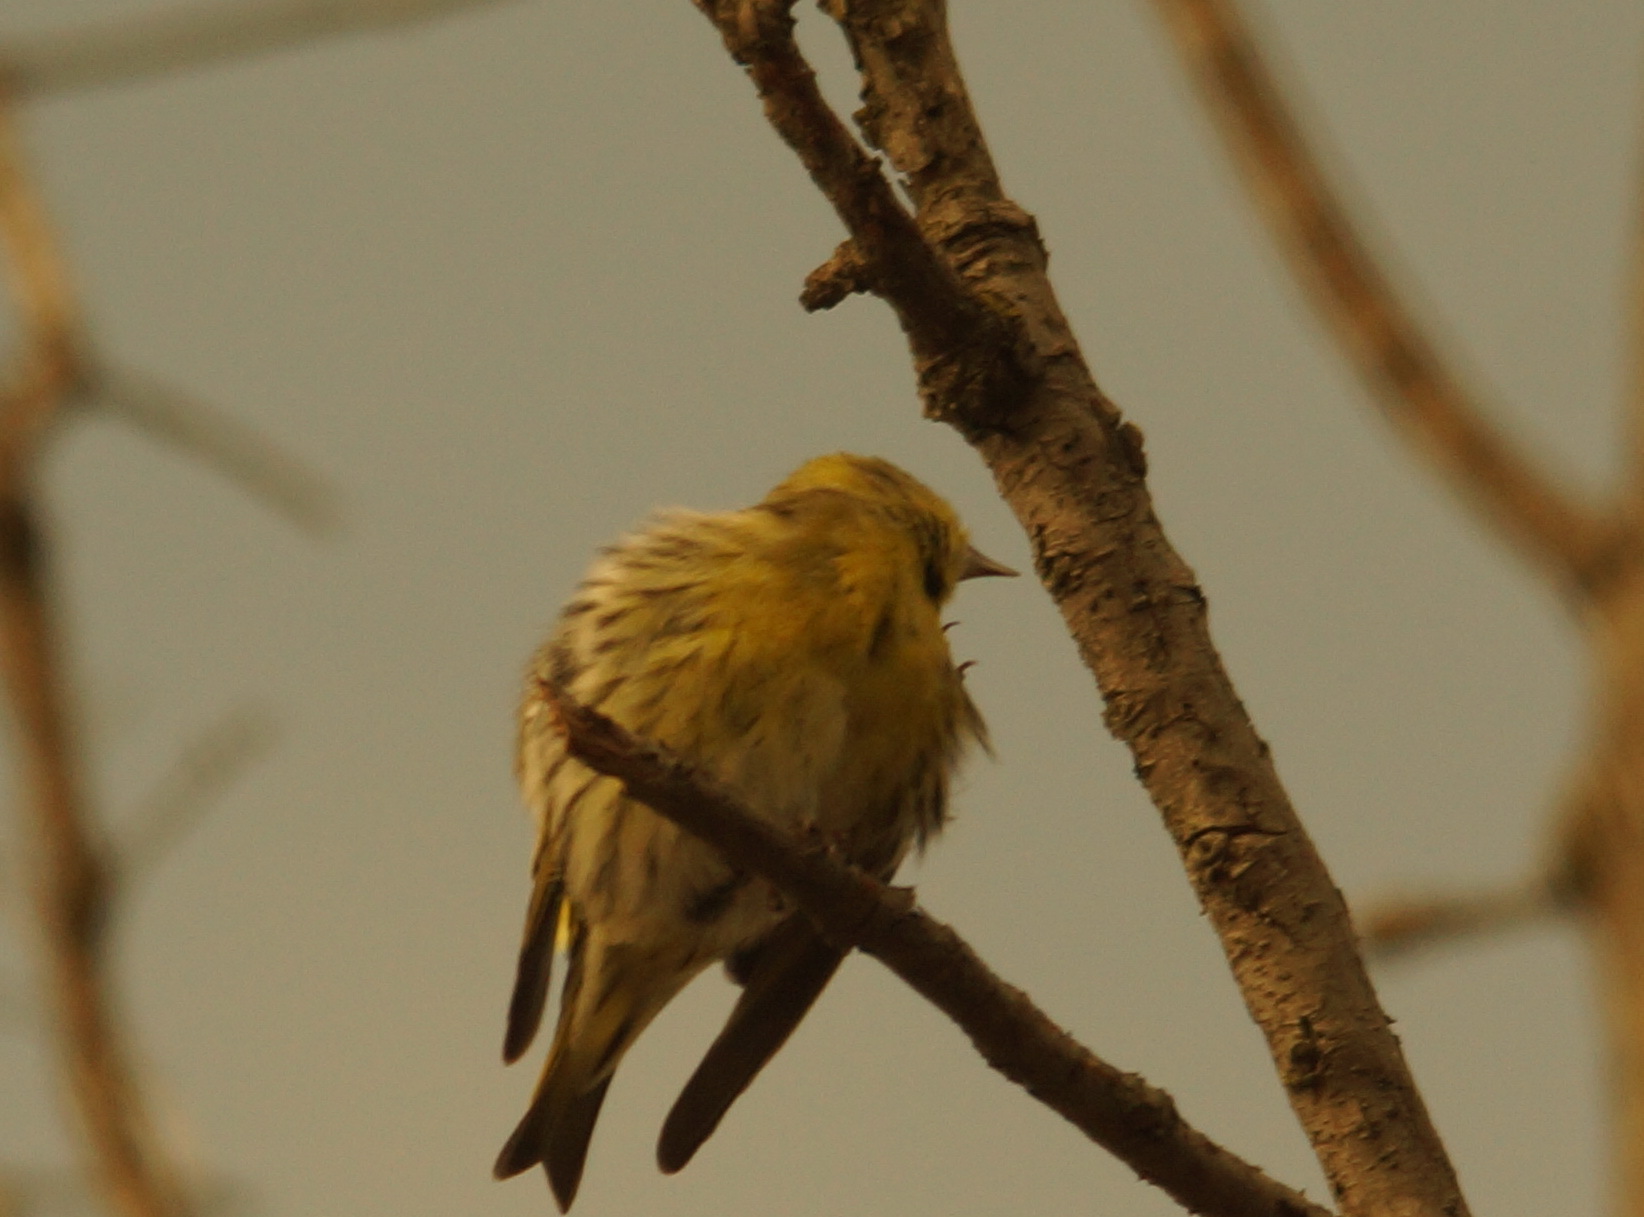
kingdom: Animalia
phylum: Chordata
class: Aves
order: Passeriformes
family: Fringillidae
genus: Spinus
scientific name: Spinus spinus
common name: Eurasian siskin
